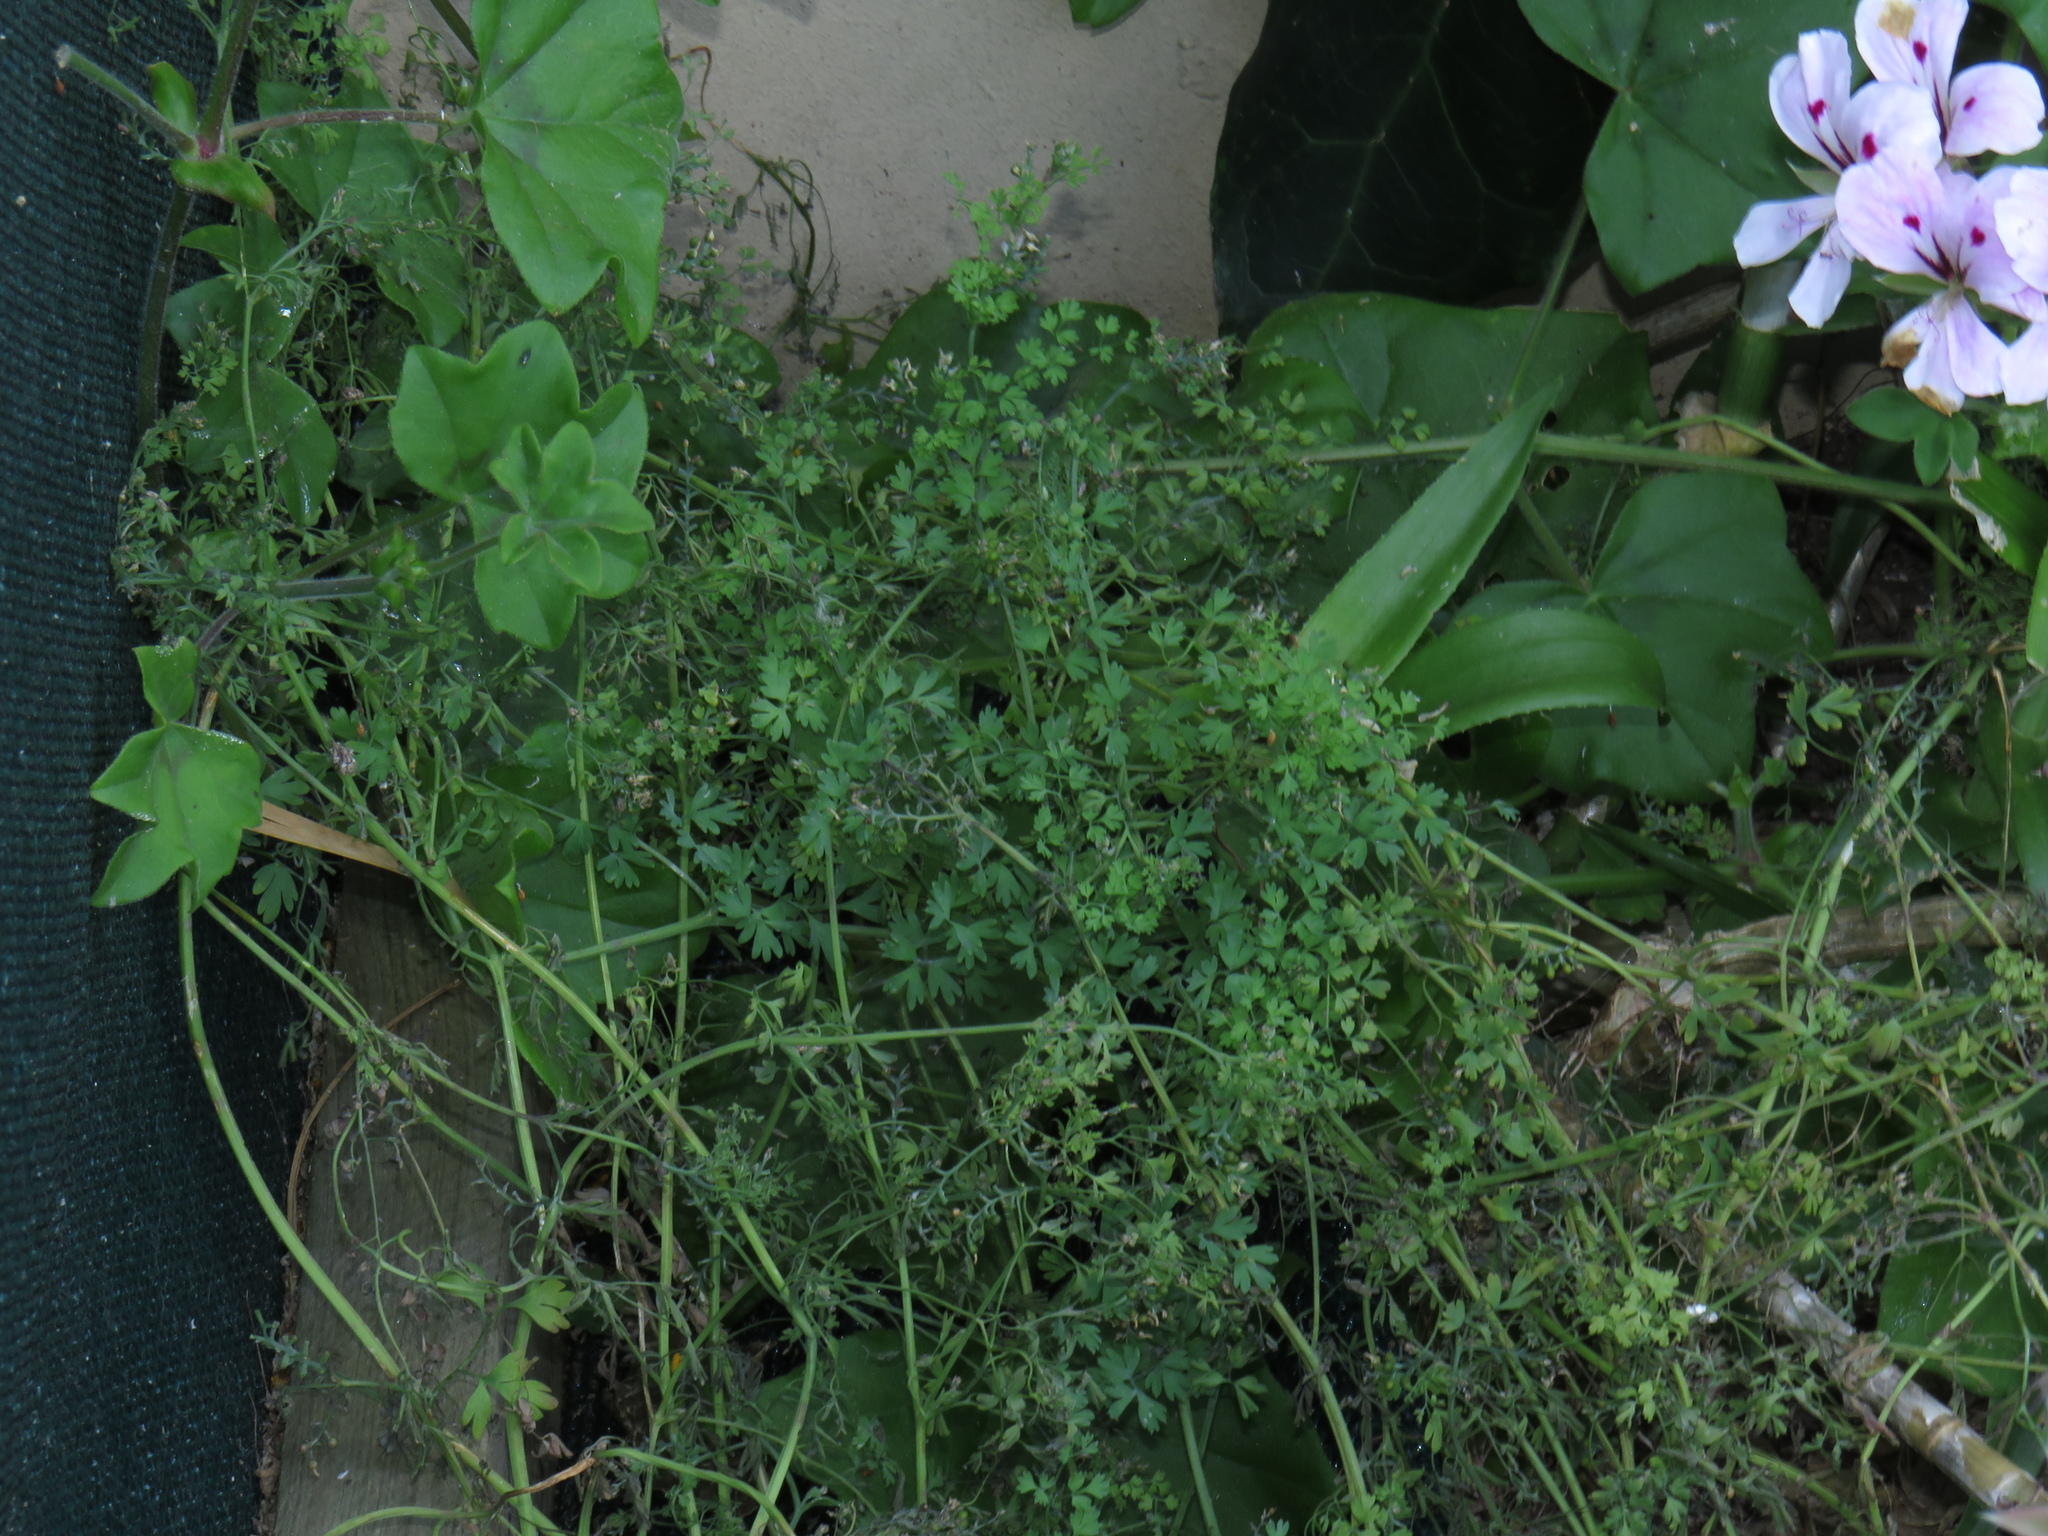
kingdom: Plantae
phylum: Tracheophyta
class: Magnoliopsida
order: Ranunculales
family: Papaveraceae
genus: Fumaria
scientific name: Fumaria muralis
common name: Common ramping-fumitory
